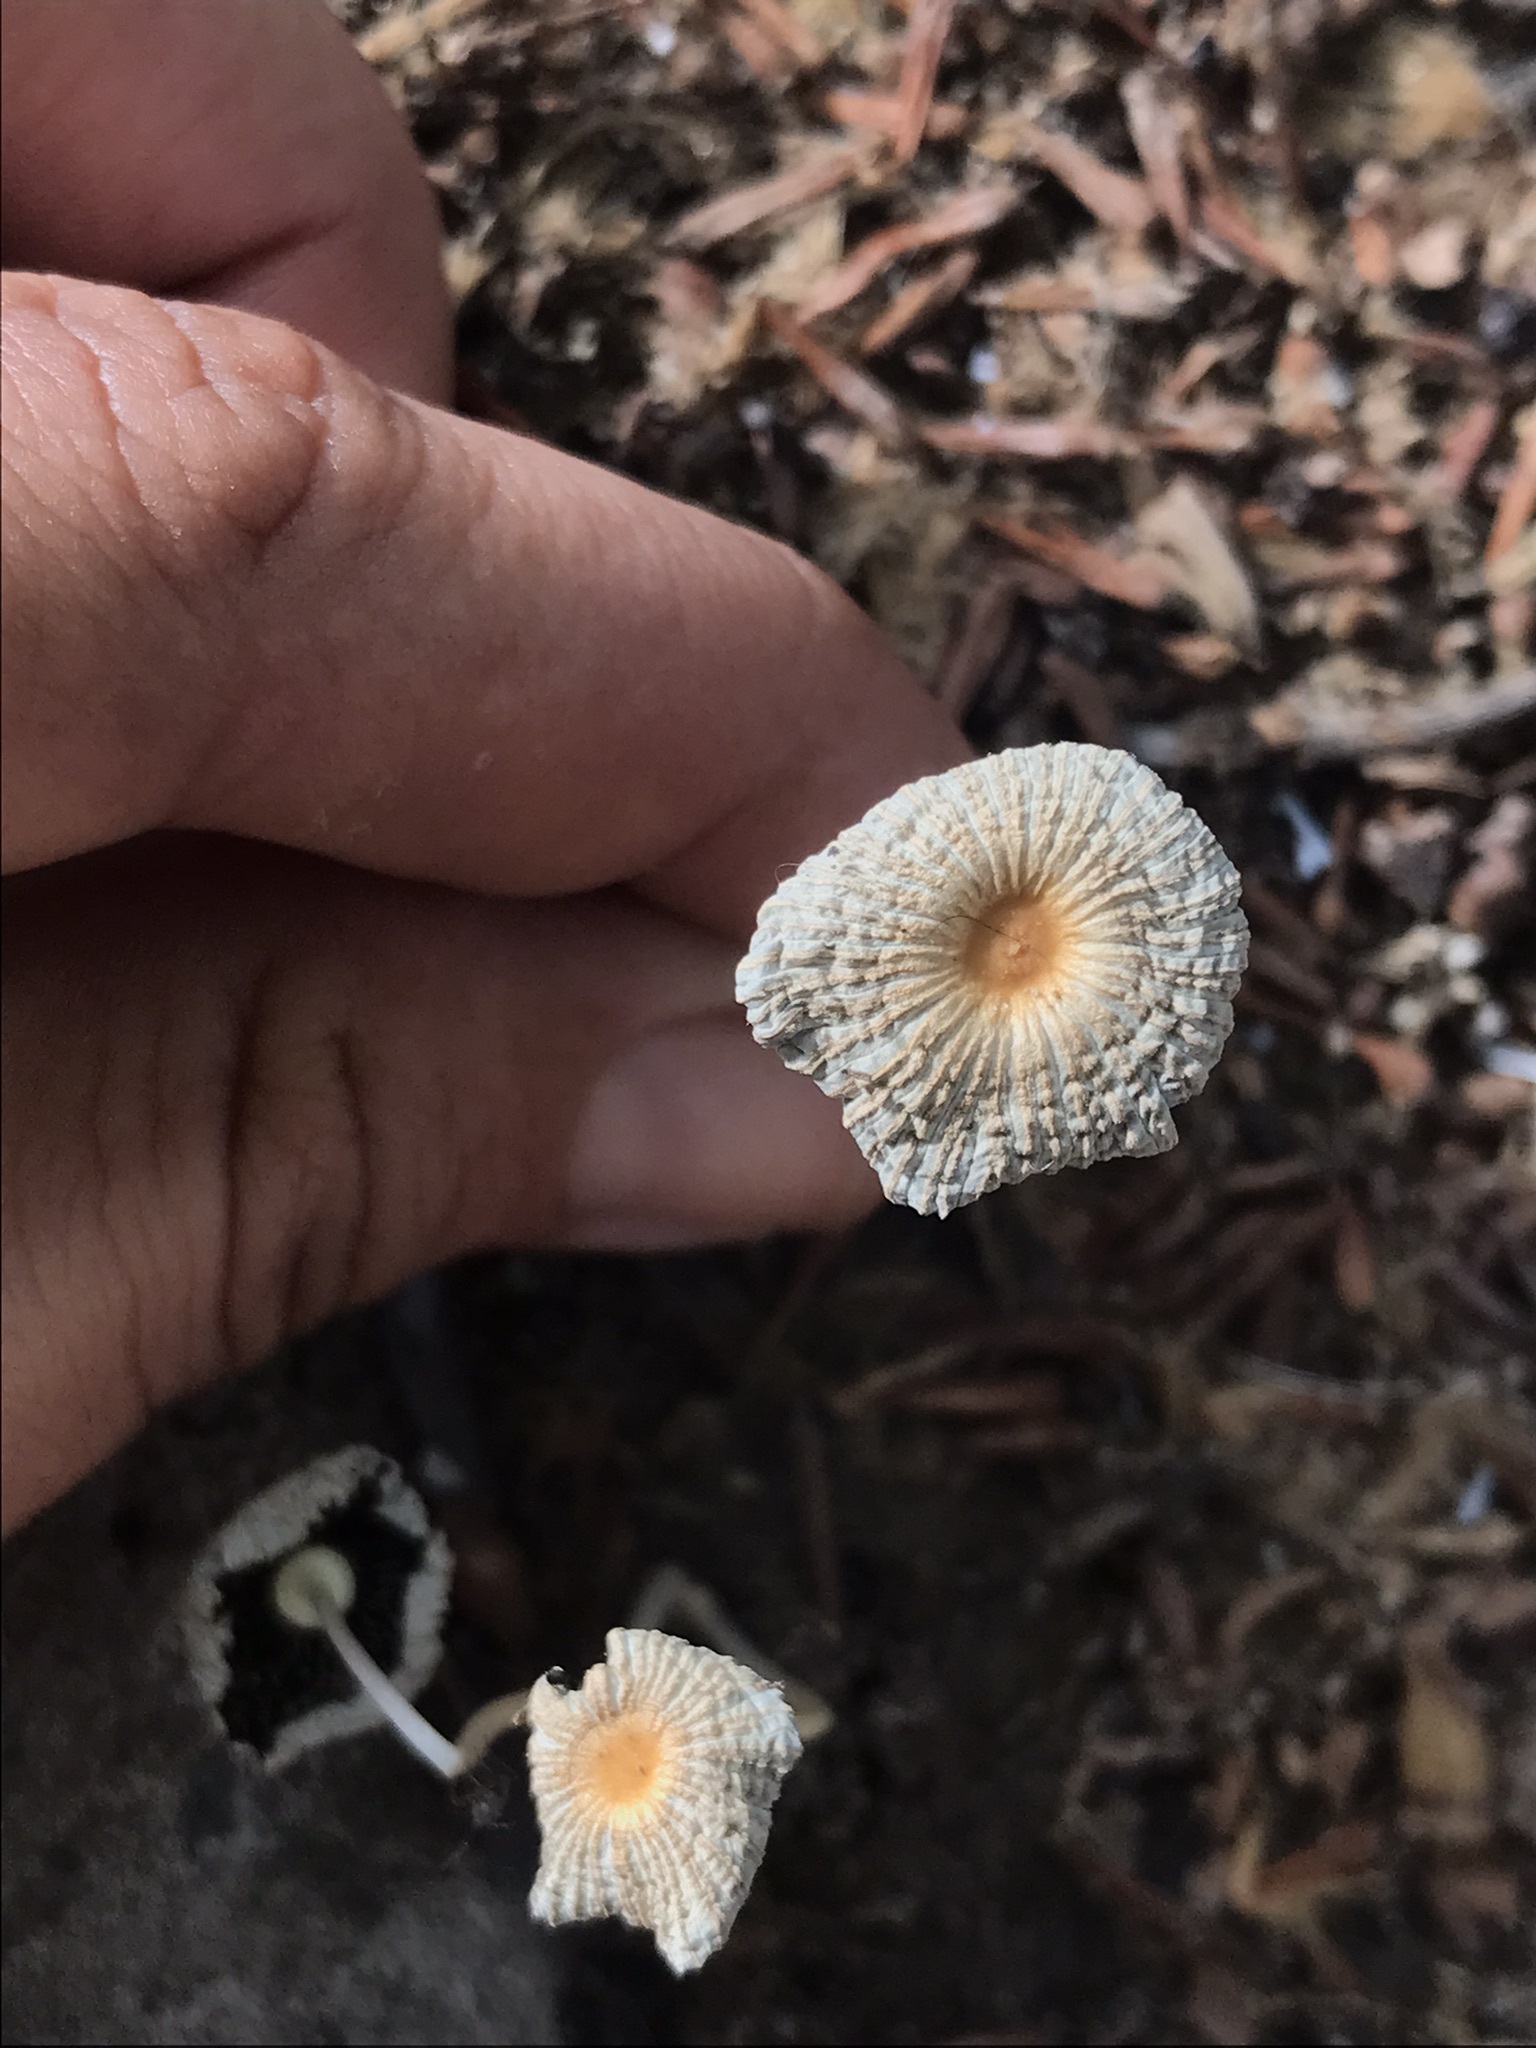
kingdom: Fungi
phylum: Basidiomycota
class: Agaricomycetes
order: Agaricales
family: Psathyrellaceae
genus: Parasola
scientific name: Parasola plicatilis
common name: Pleated inkcap
